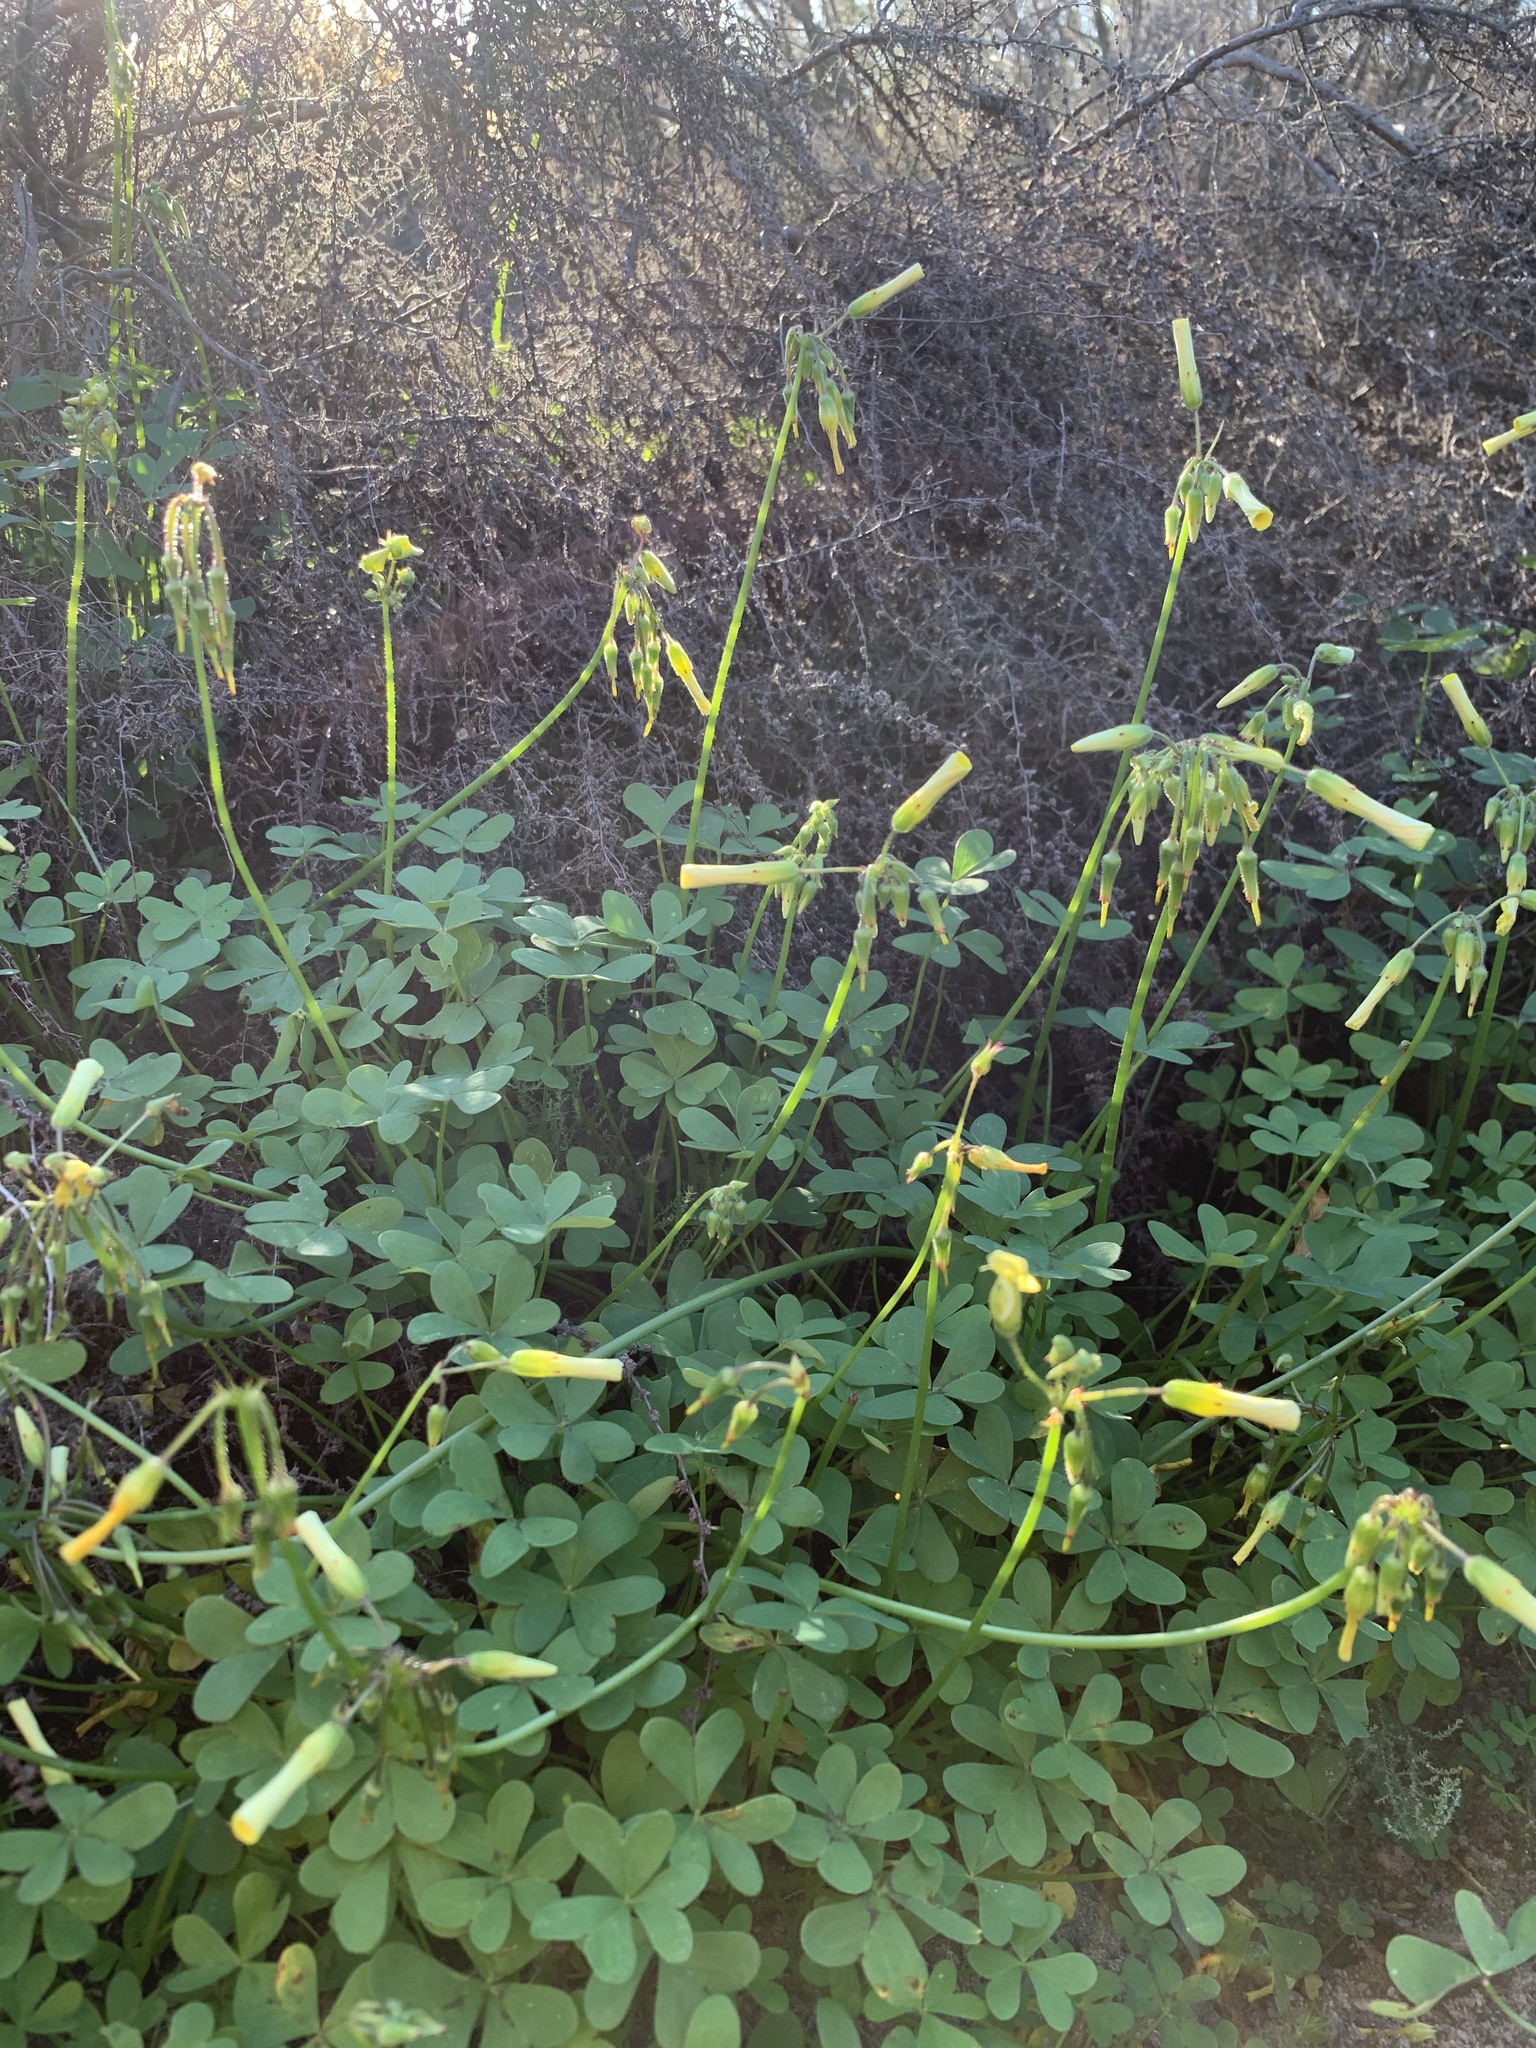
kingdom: Plantae
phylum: Tracheophyta
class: Magnoliopsida
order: Oxalidales
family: Oxalidaceae
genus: Oxalis
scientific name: Oxalis pes-caprae
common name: Bermuda-buttercup
